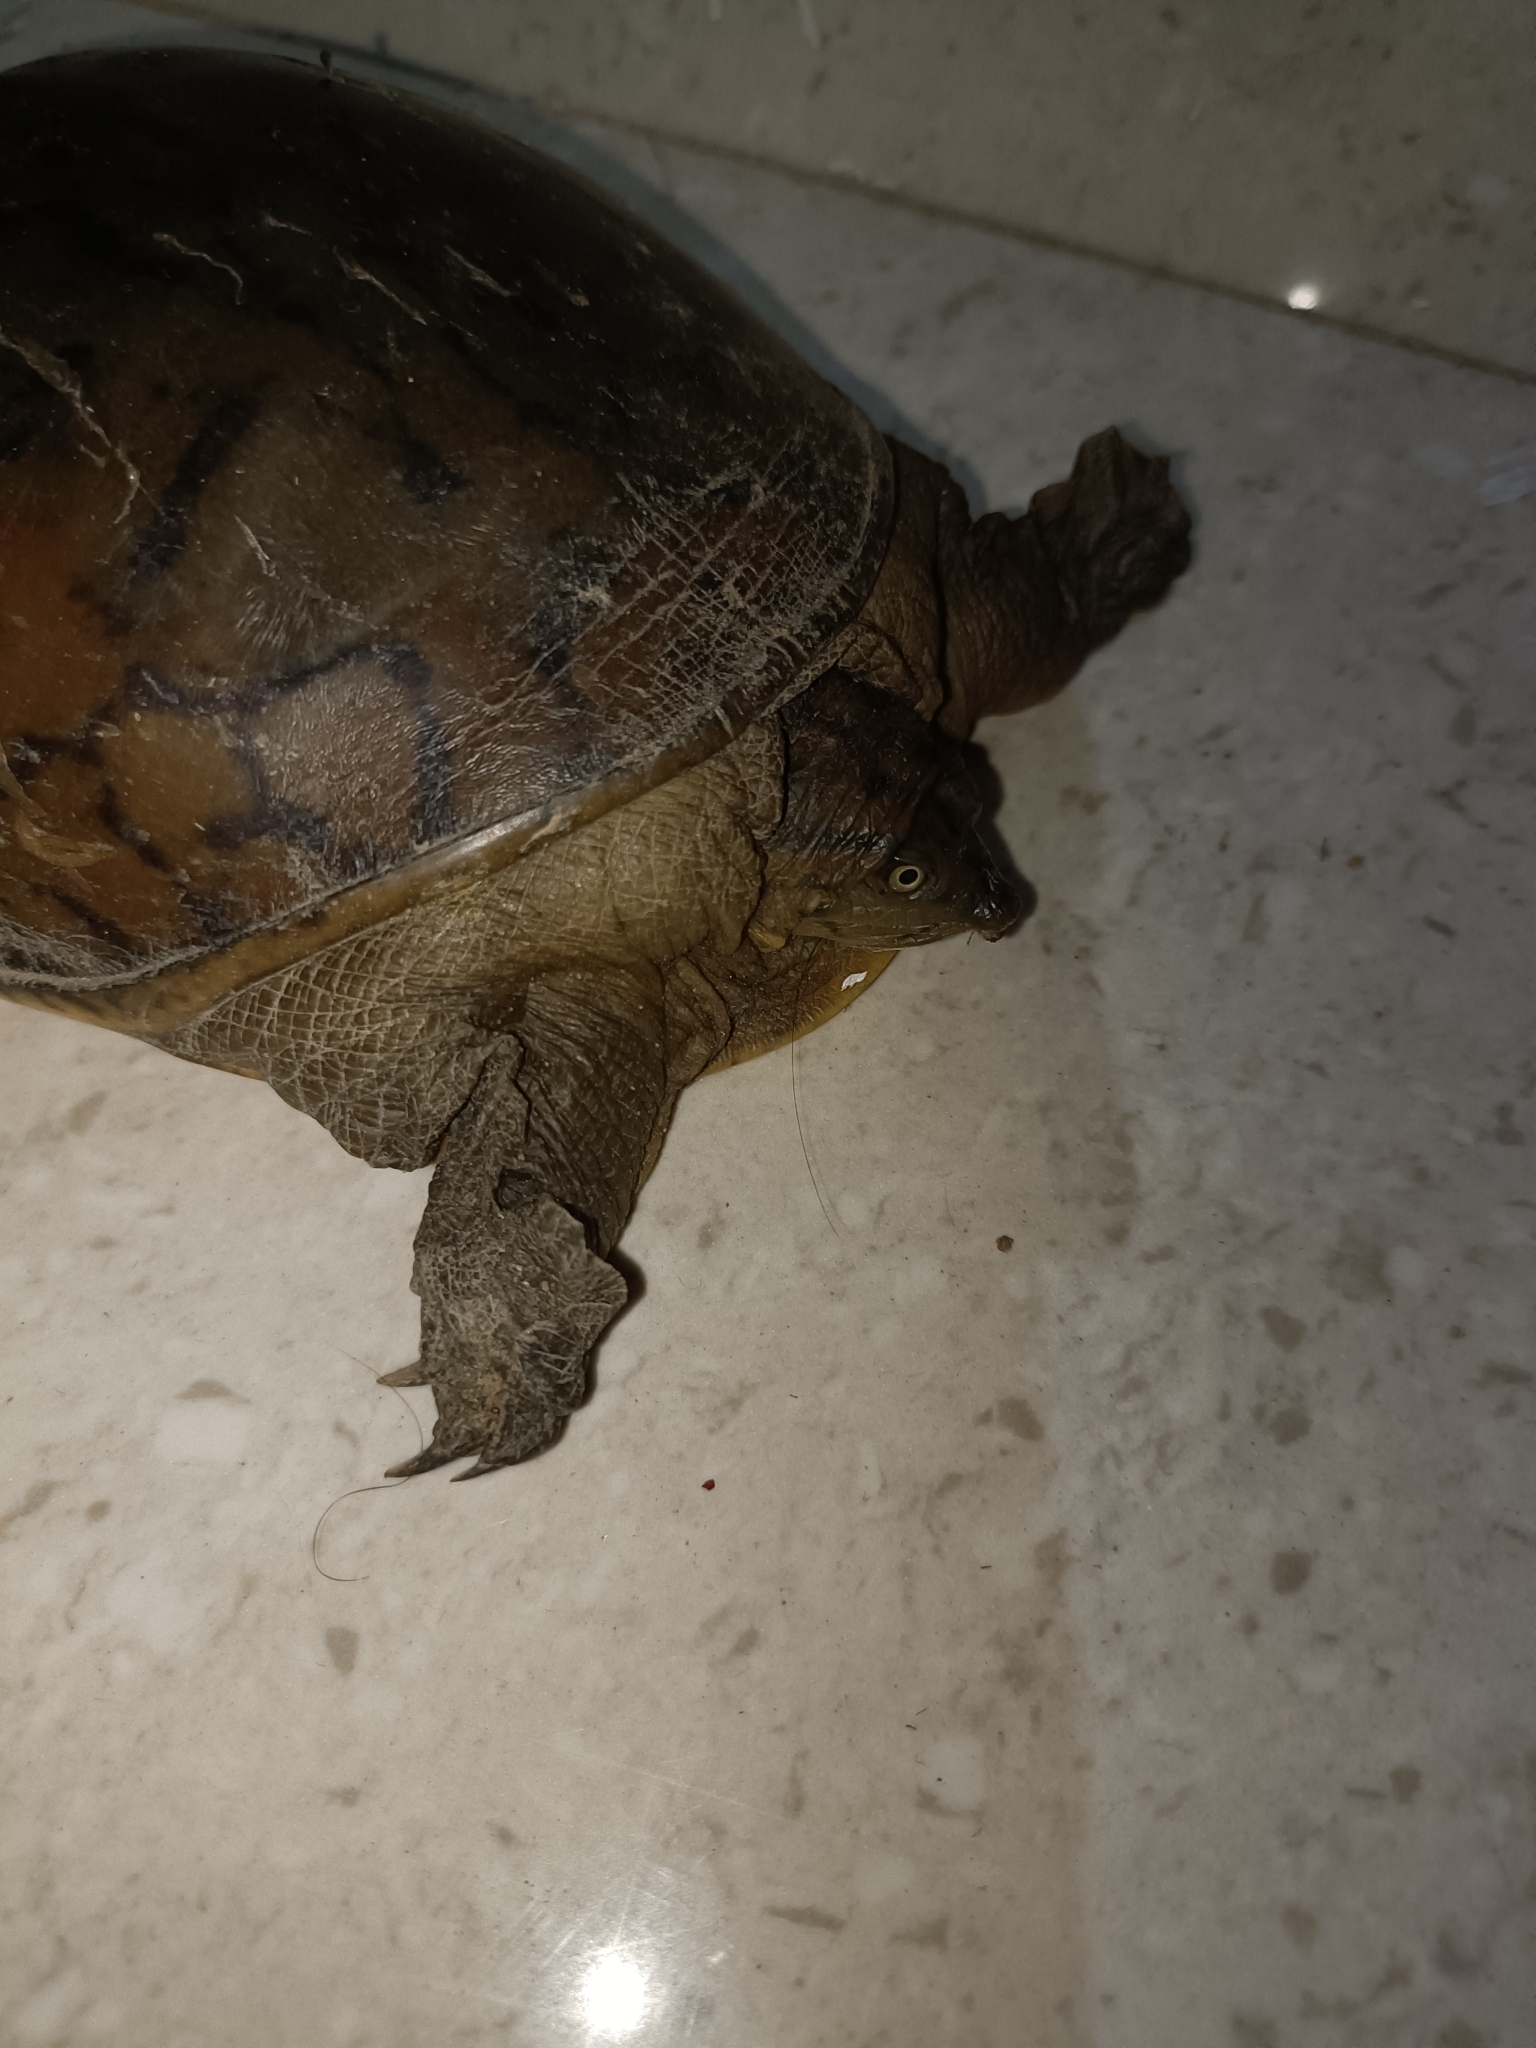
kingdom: Animalia
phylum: Chordata
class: Testudines
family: Trionychidae
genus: Lissemys
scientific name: Lissemys punctata
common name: Indian flap-shelled turtle
